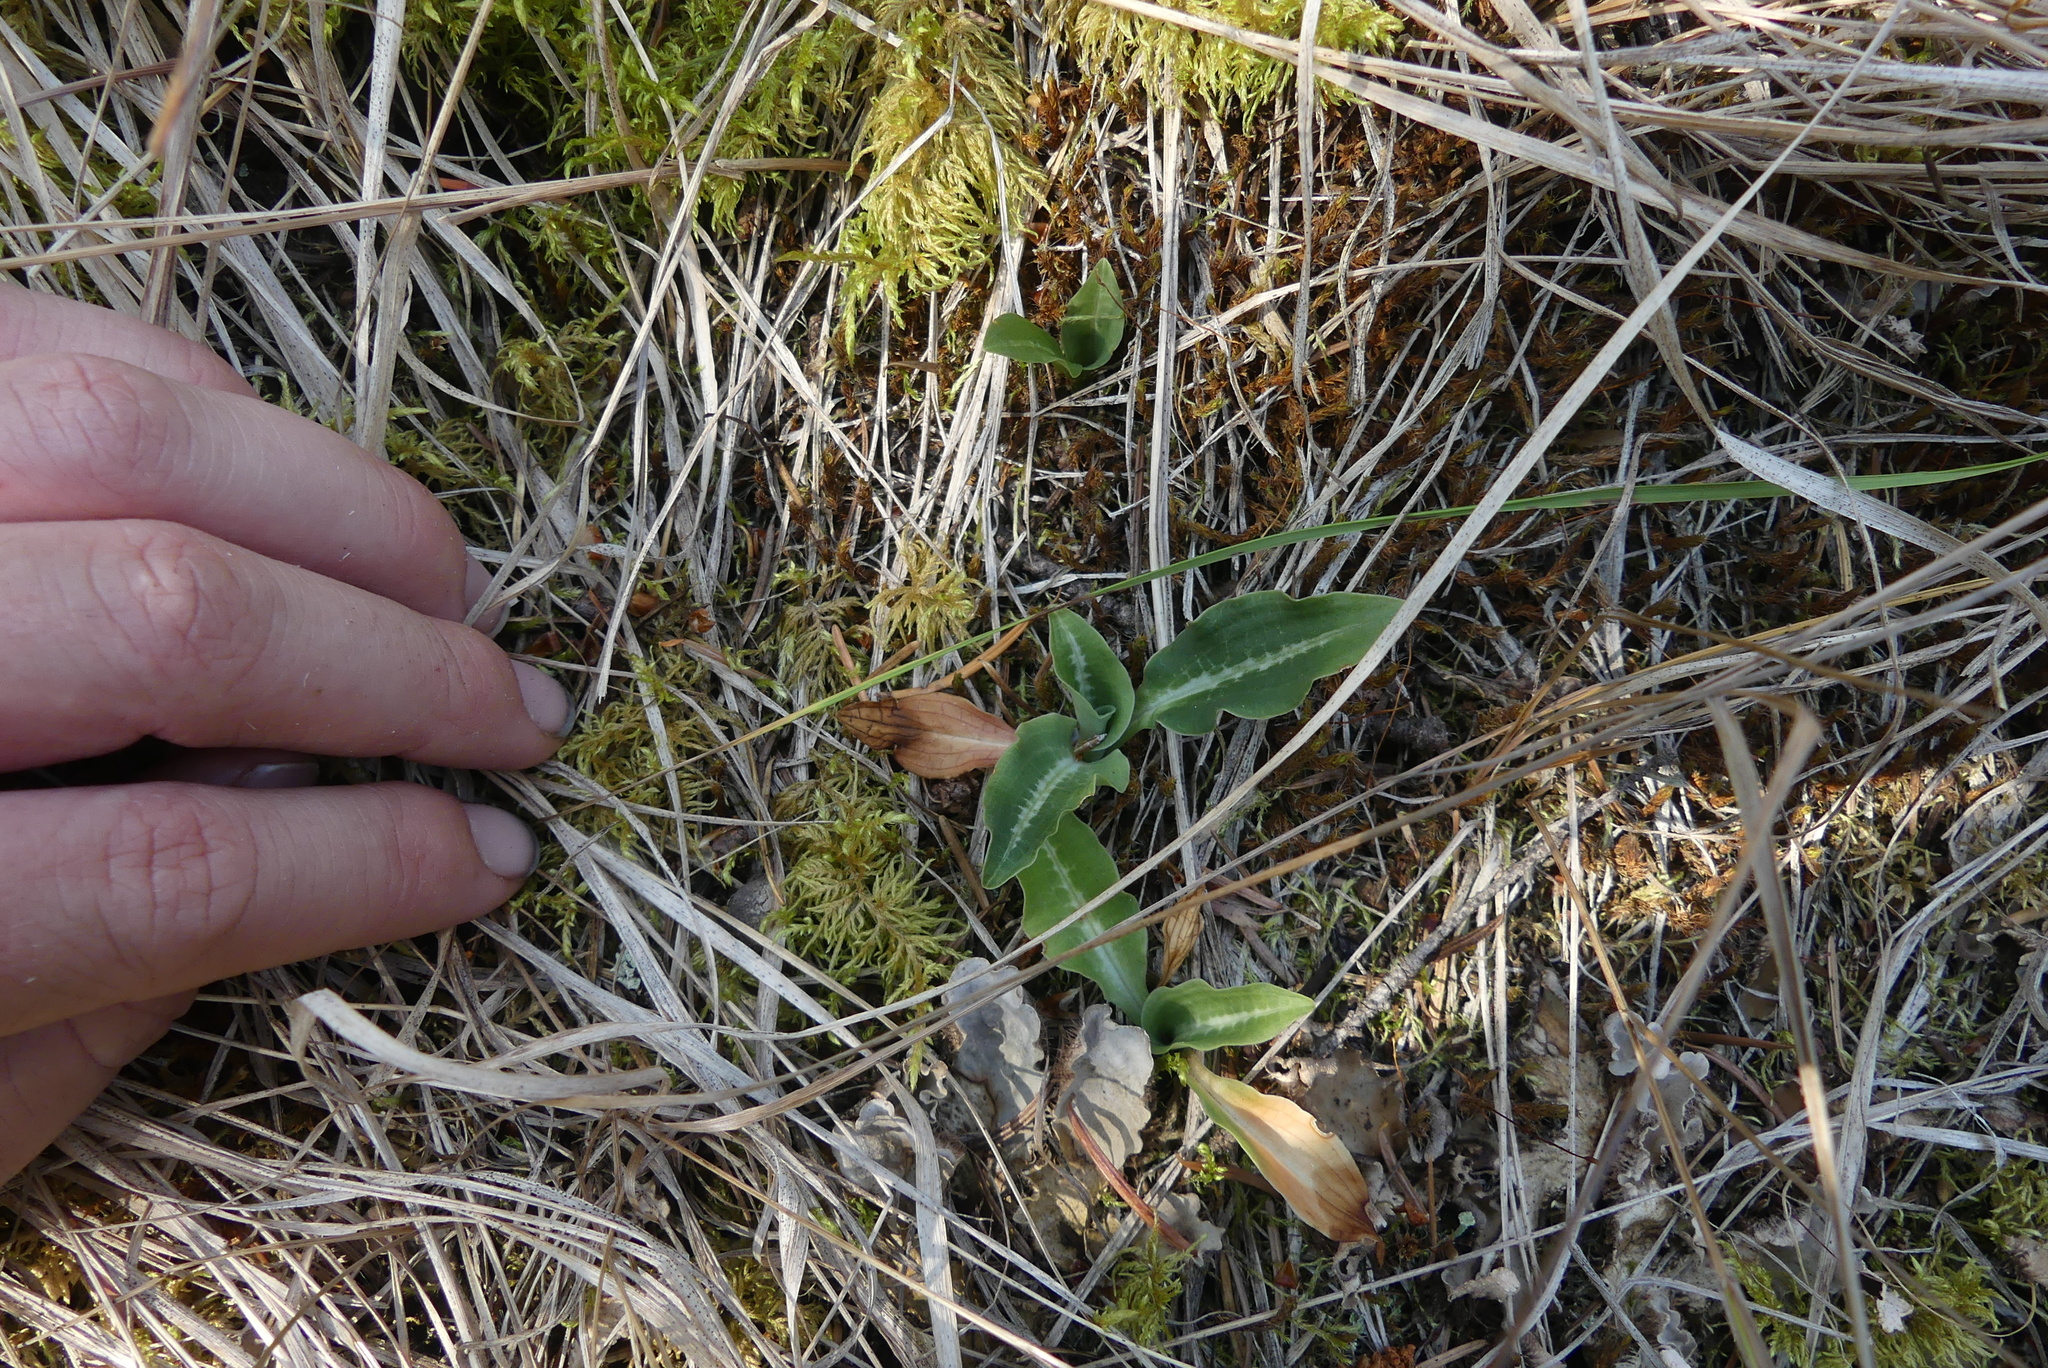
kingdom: Plantae
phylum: Tracheophyta
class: Liliopsida
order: Asparagales
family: Orchidaceae
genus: Goodyera
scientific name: Goodyera oblongifolia
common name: Giant rattlesnake-plantain
